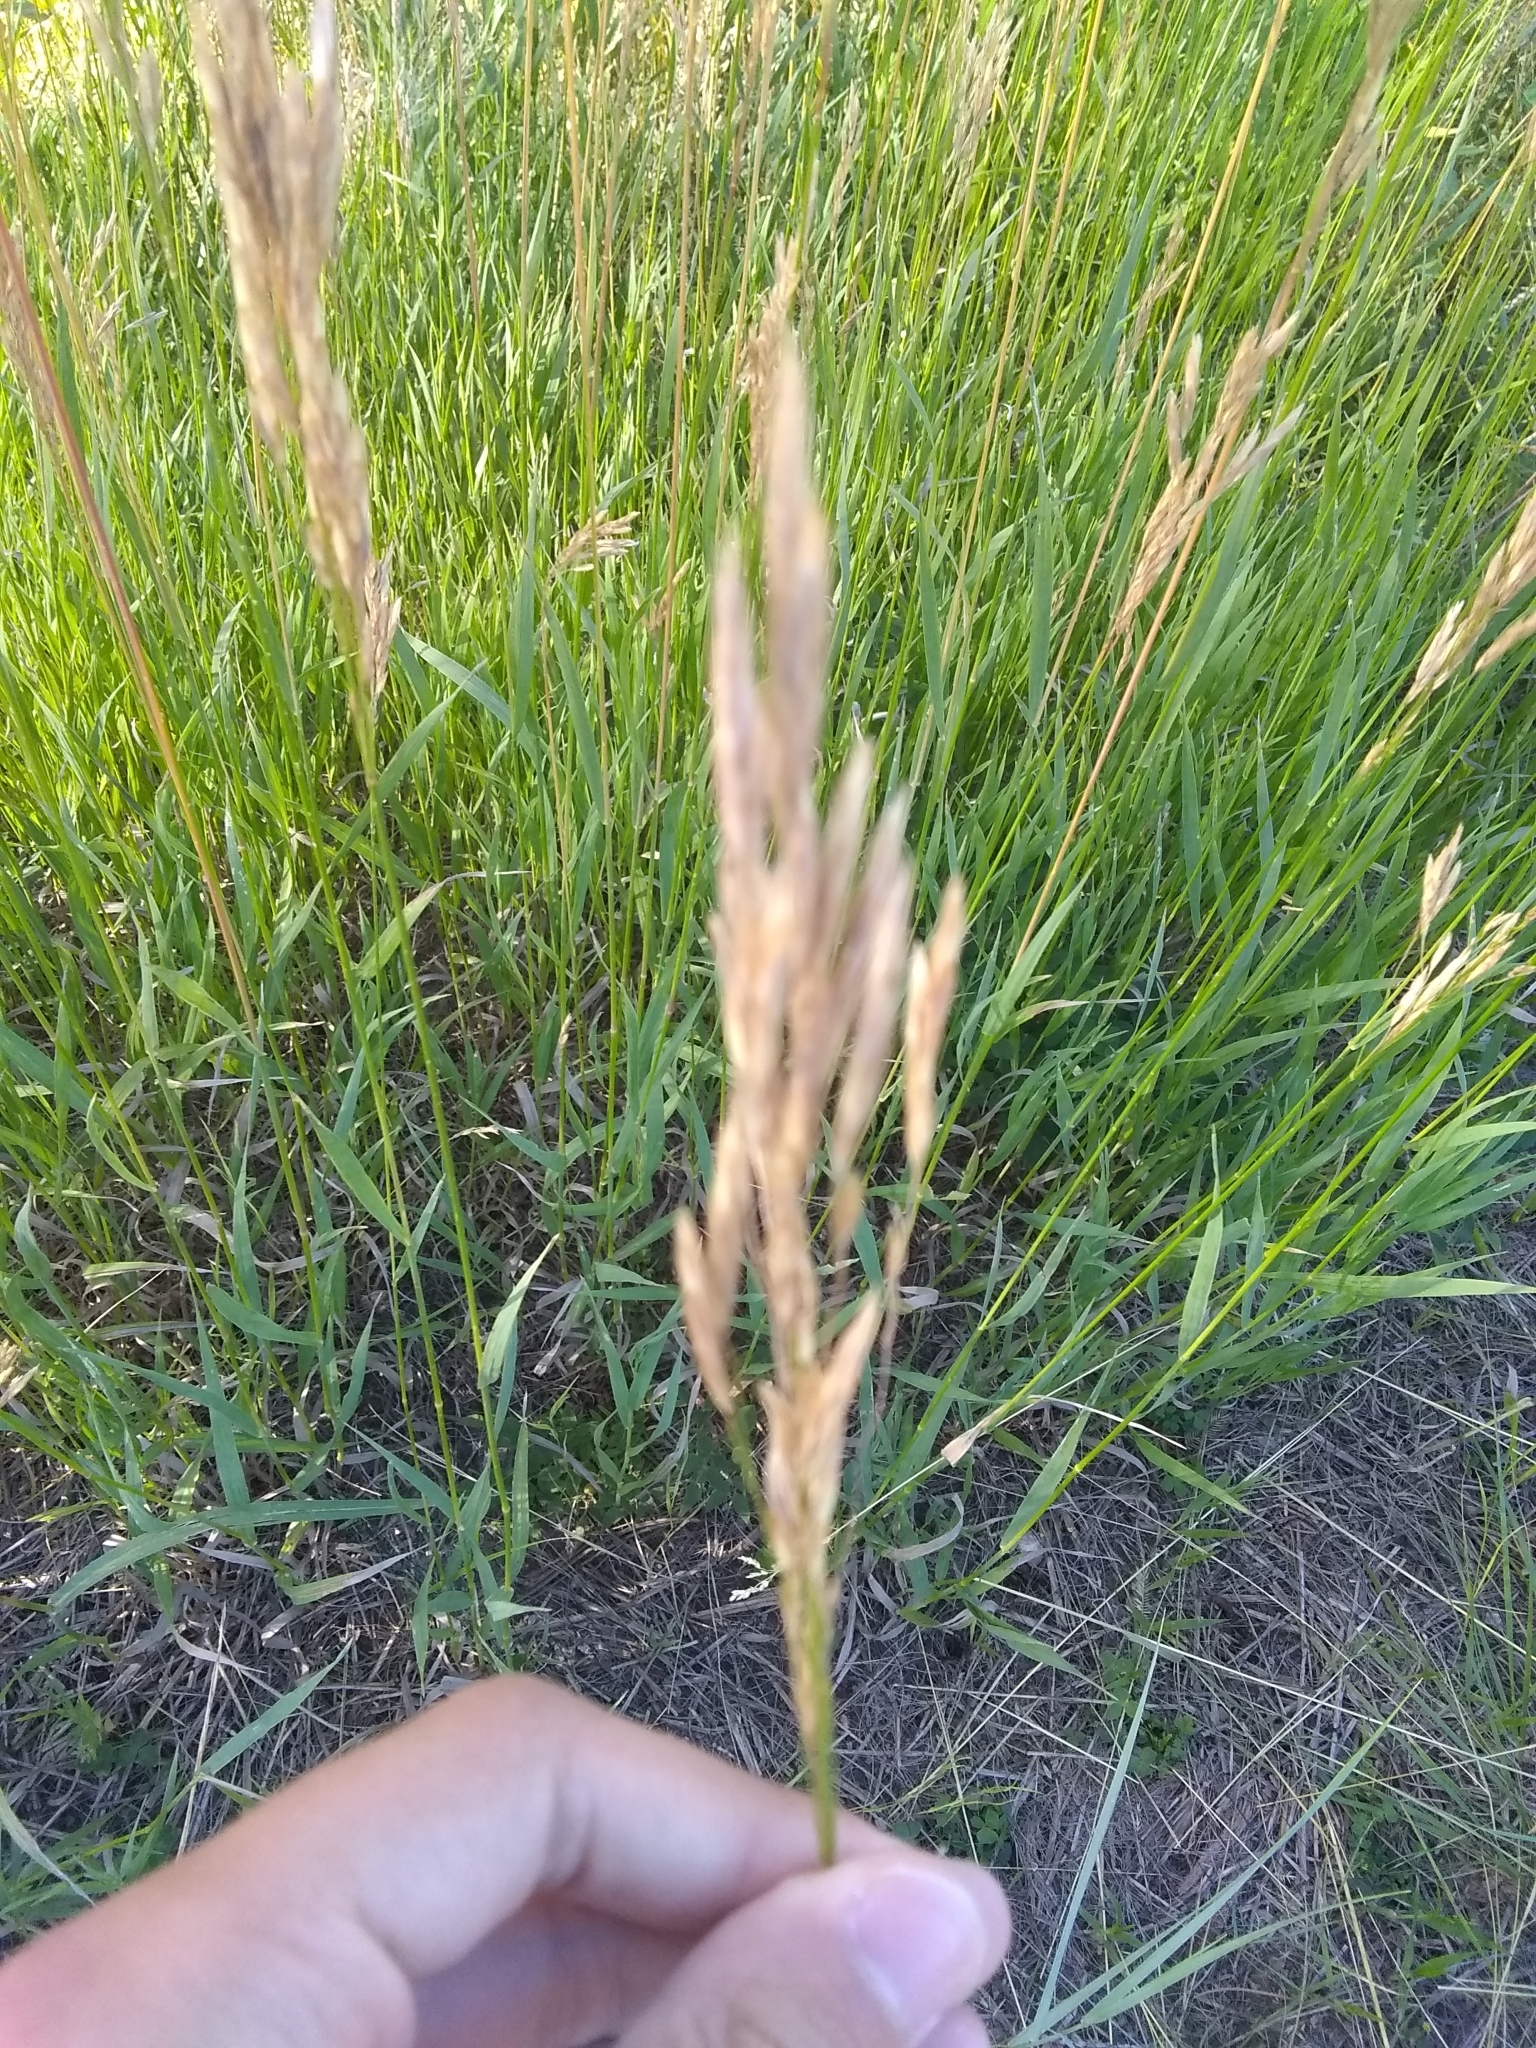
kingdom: Plantae
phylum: Tracheophyta
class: Liliopsida
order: Poales
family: Poaceae
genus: Bromus
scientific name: Bromus inermis
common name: Smooth brome
